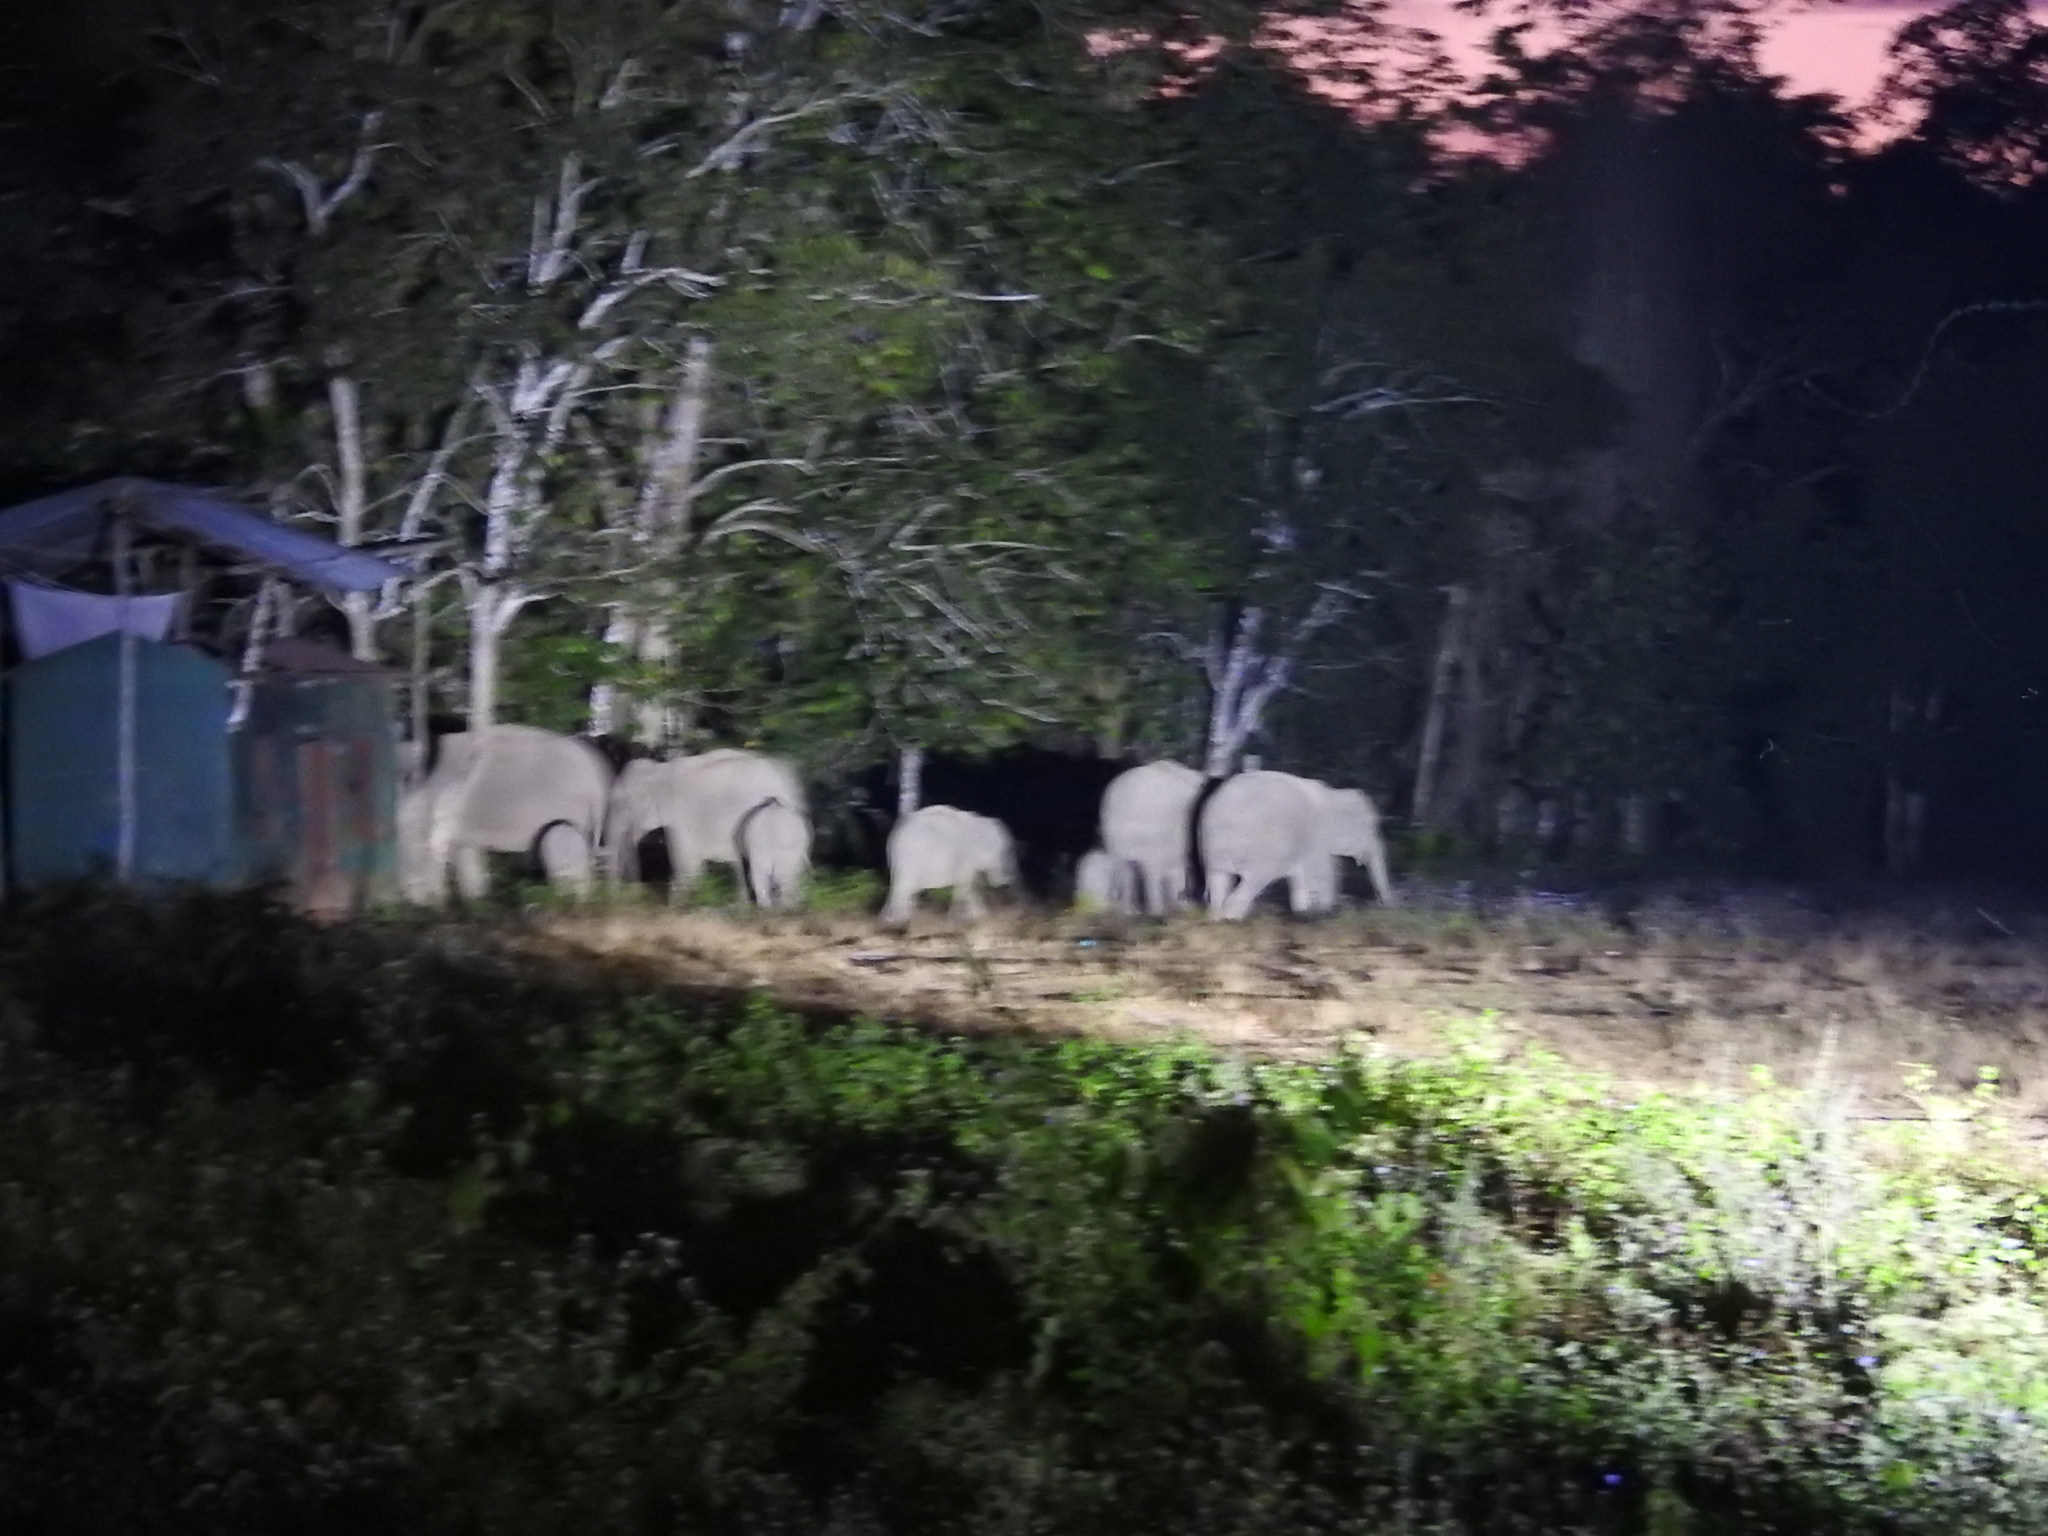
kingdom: Animalia
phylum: Chordata
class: Mammalia
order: Proboscidea
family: Elephantidae
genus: Elephas
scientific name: Elephas maximus
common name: Asian elephant
